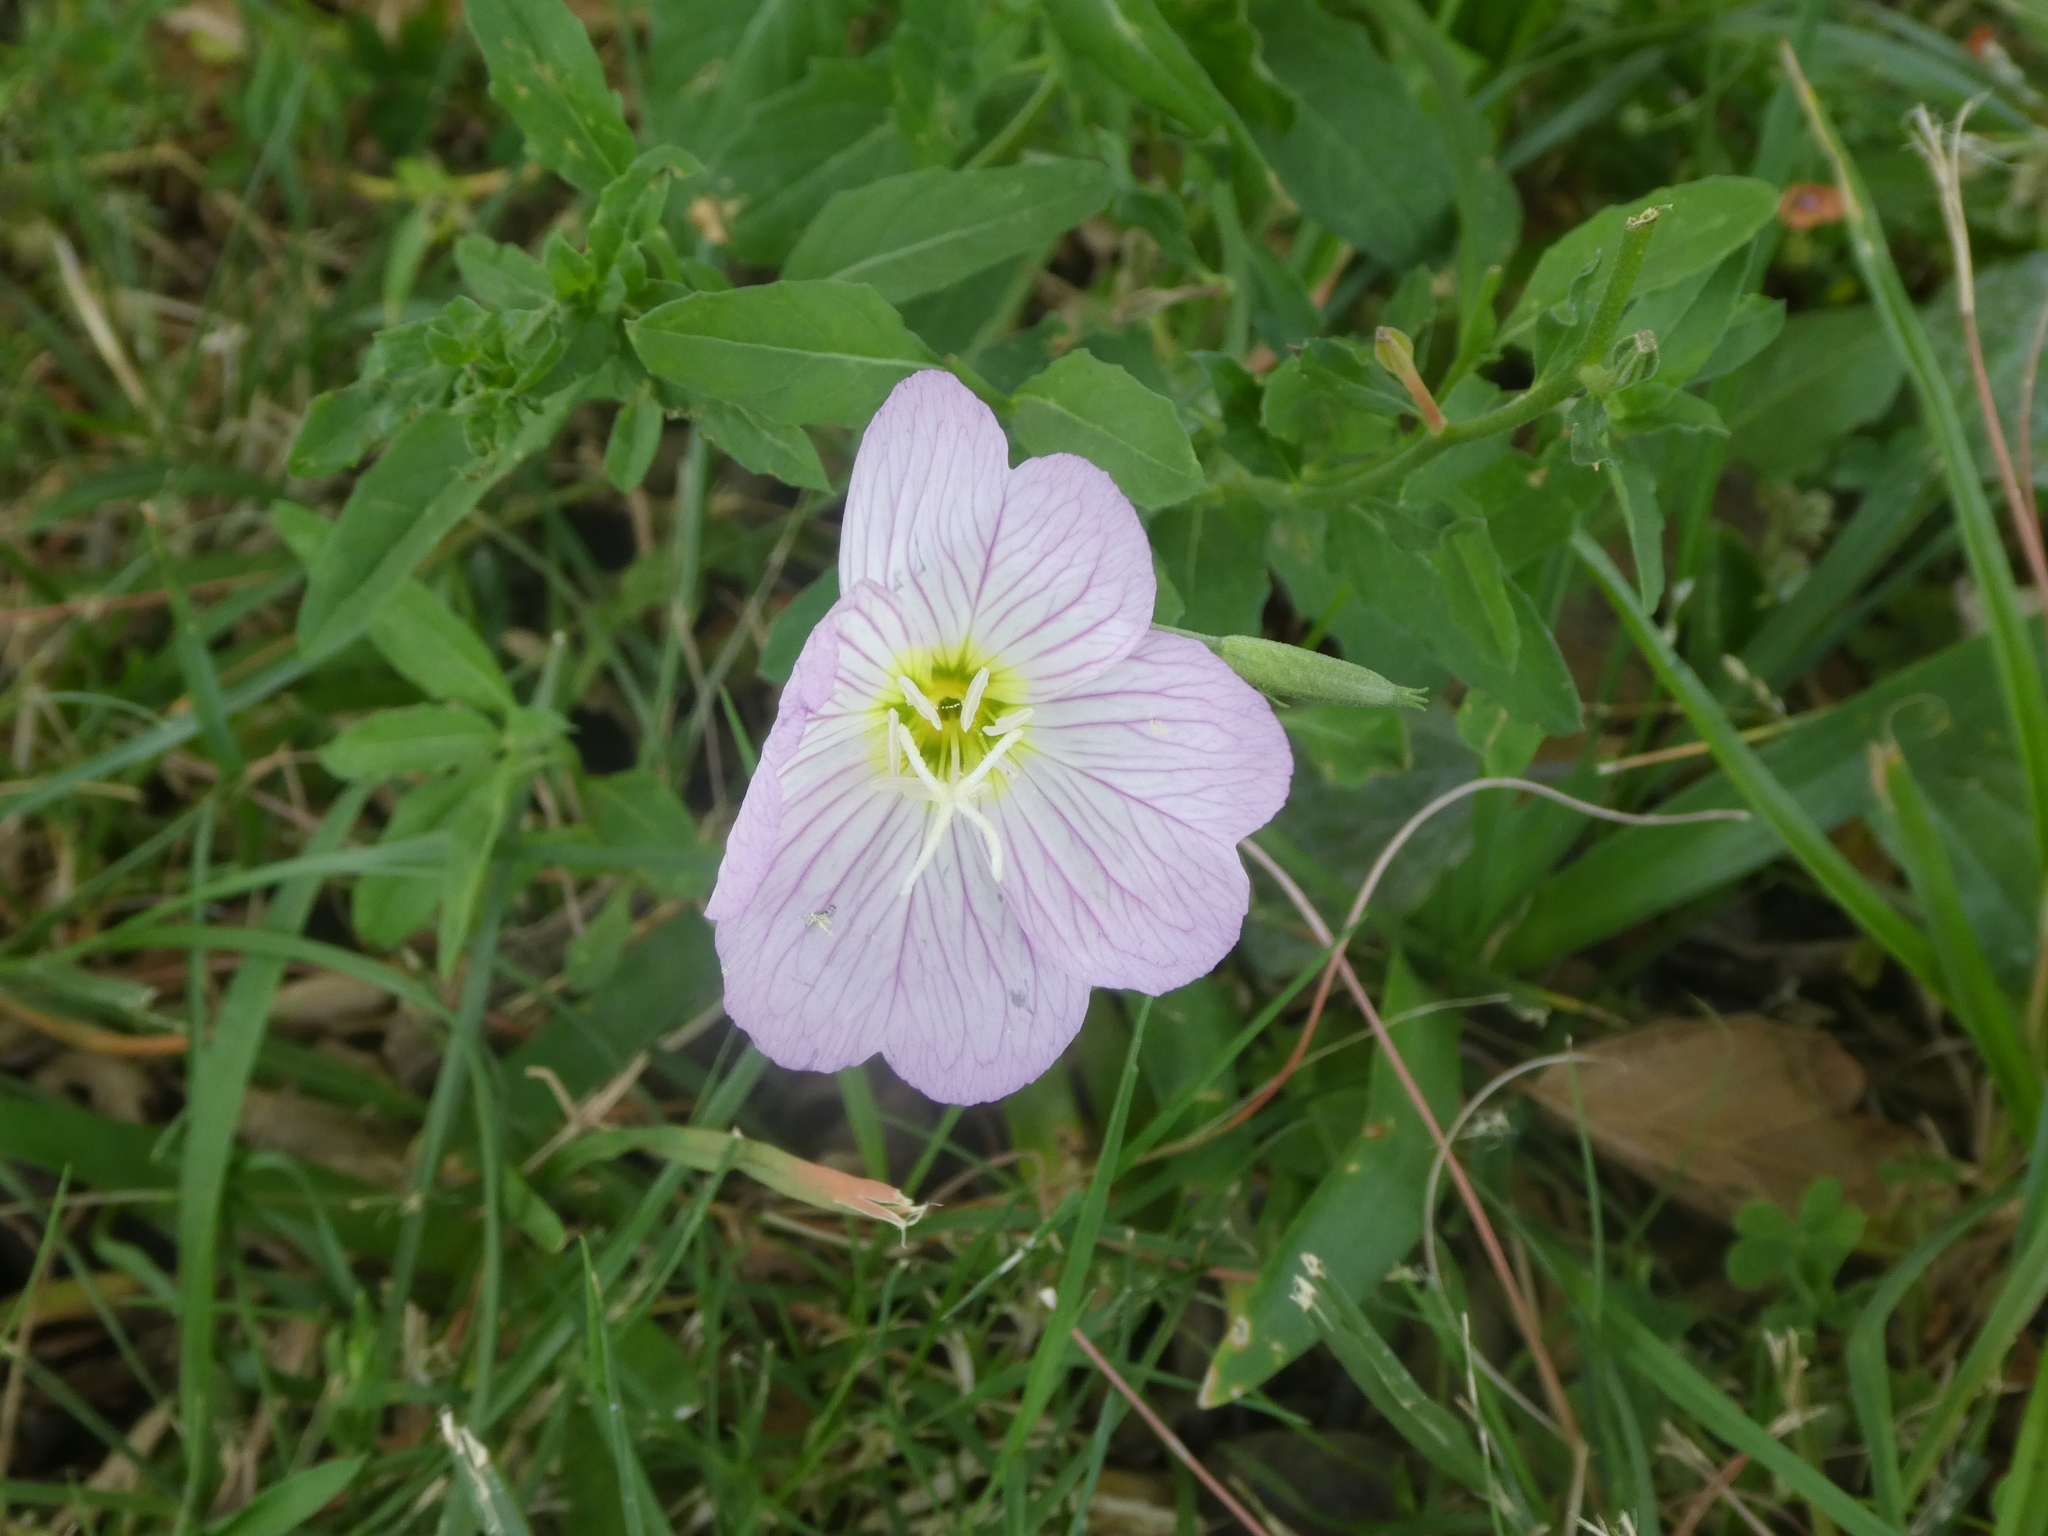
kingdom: Plantae
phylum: Tracheophyta
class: Magnoliopsida
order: Myrtales
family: Onagraceae
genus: Oenothera
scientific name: Oenothera speciosa
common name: White evening-primrose
